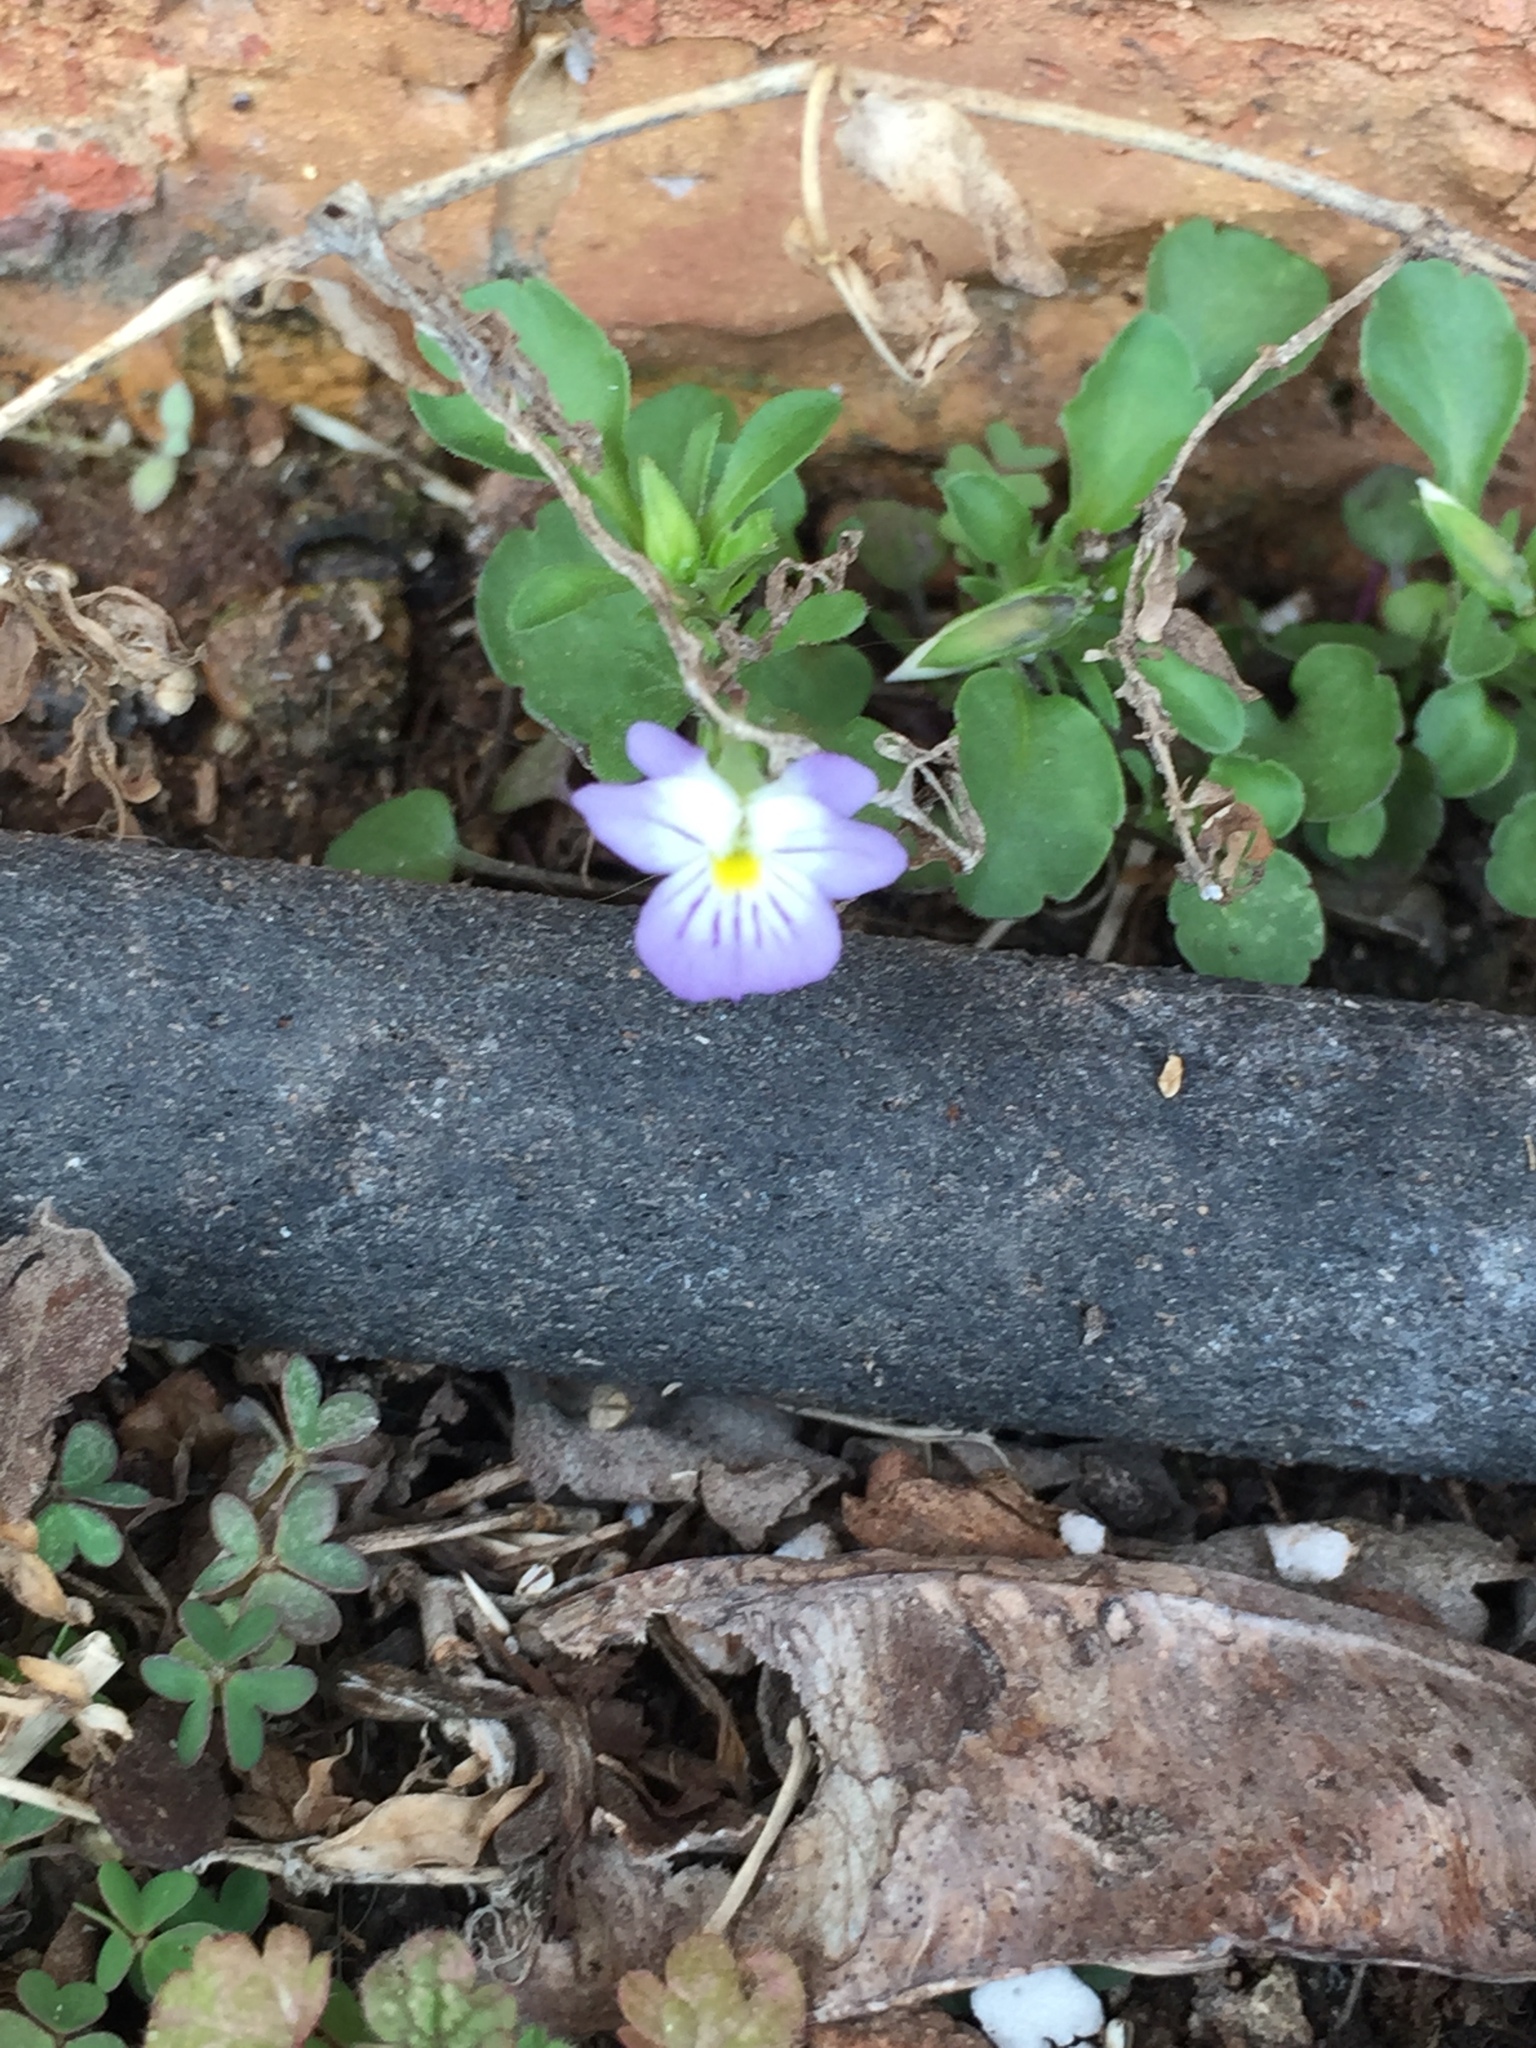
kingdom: Plantae
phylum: Tracheophyta
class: Magnoliopsida
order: Malpighiales
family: Violaceae
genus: Viola
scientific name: Viola rafinesquei
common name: American field pansy
